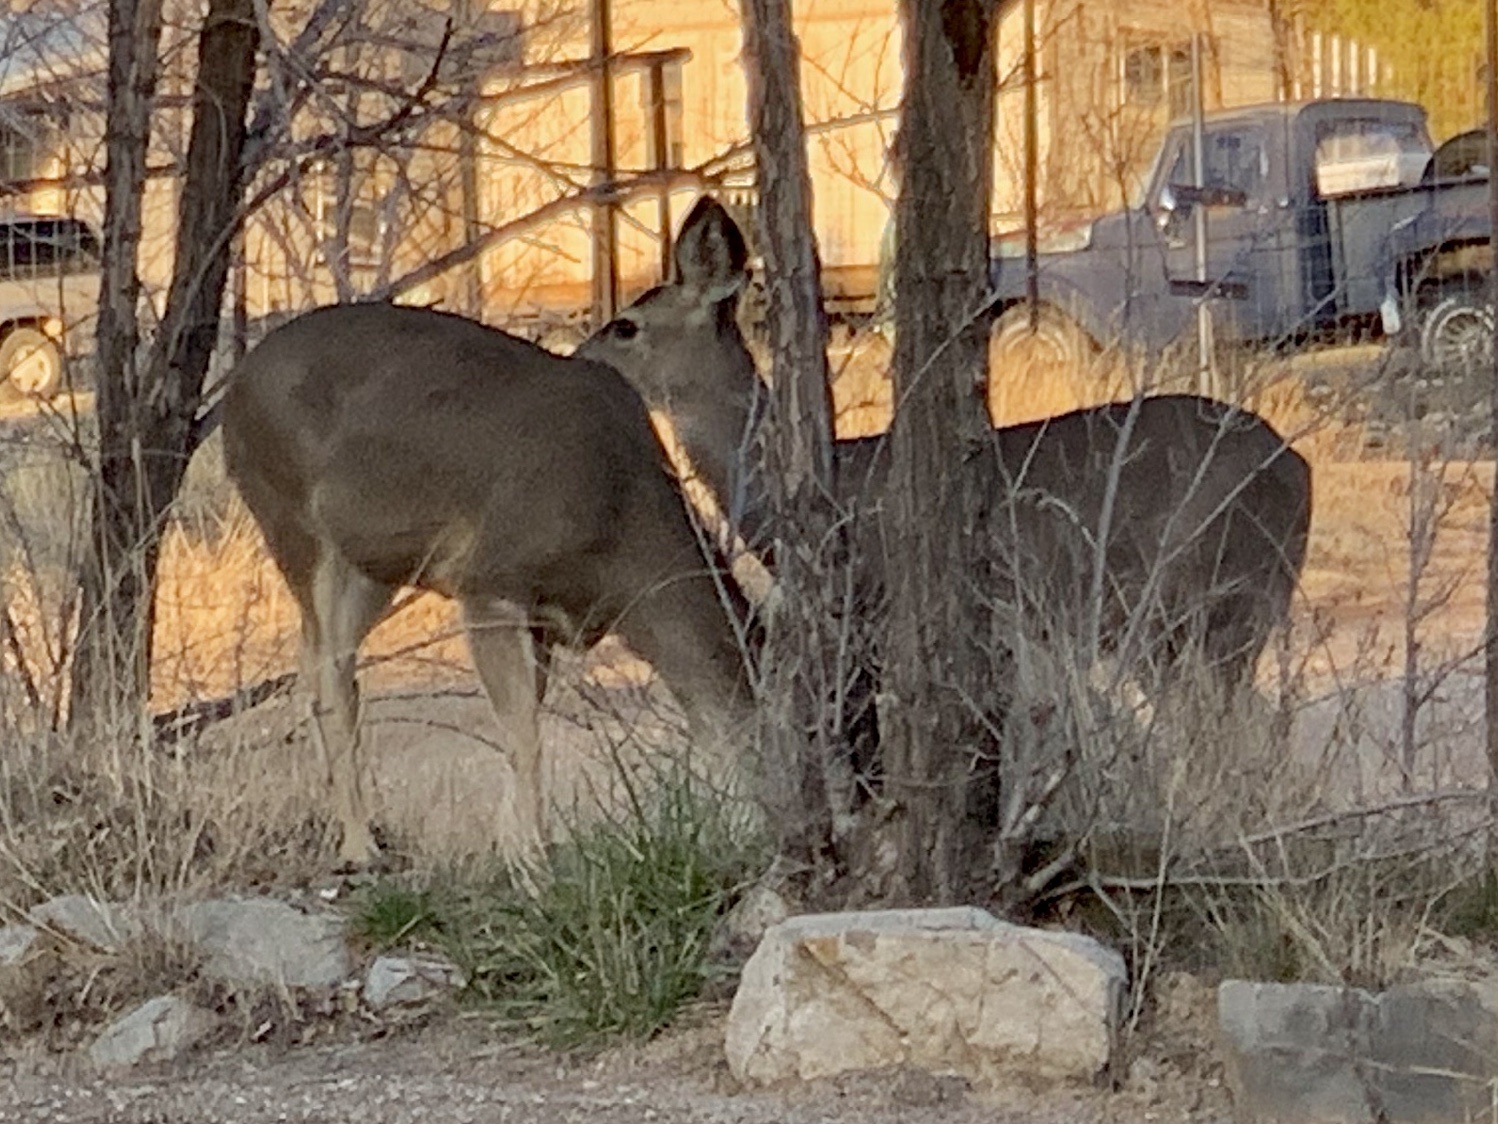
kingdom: Animalia
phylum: Chordata
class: Mammalia
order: Artiodactyla
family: Cervidae
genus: Odocoileus
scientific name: Odocoileus hemionus
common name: Mule deer
